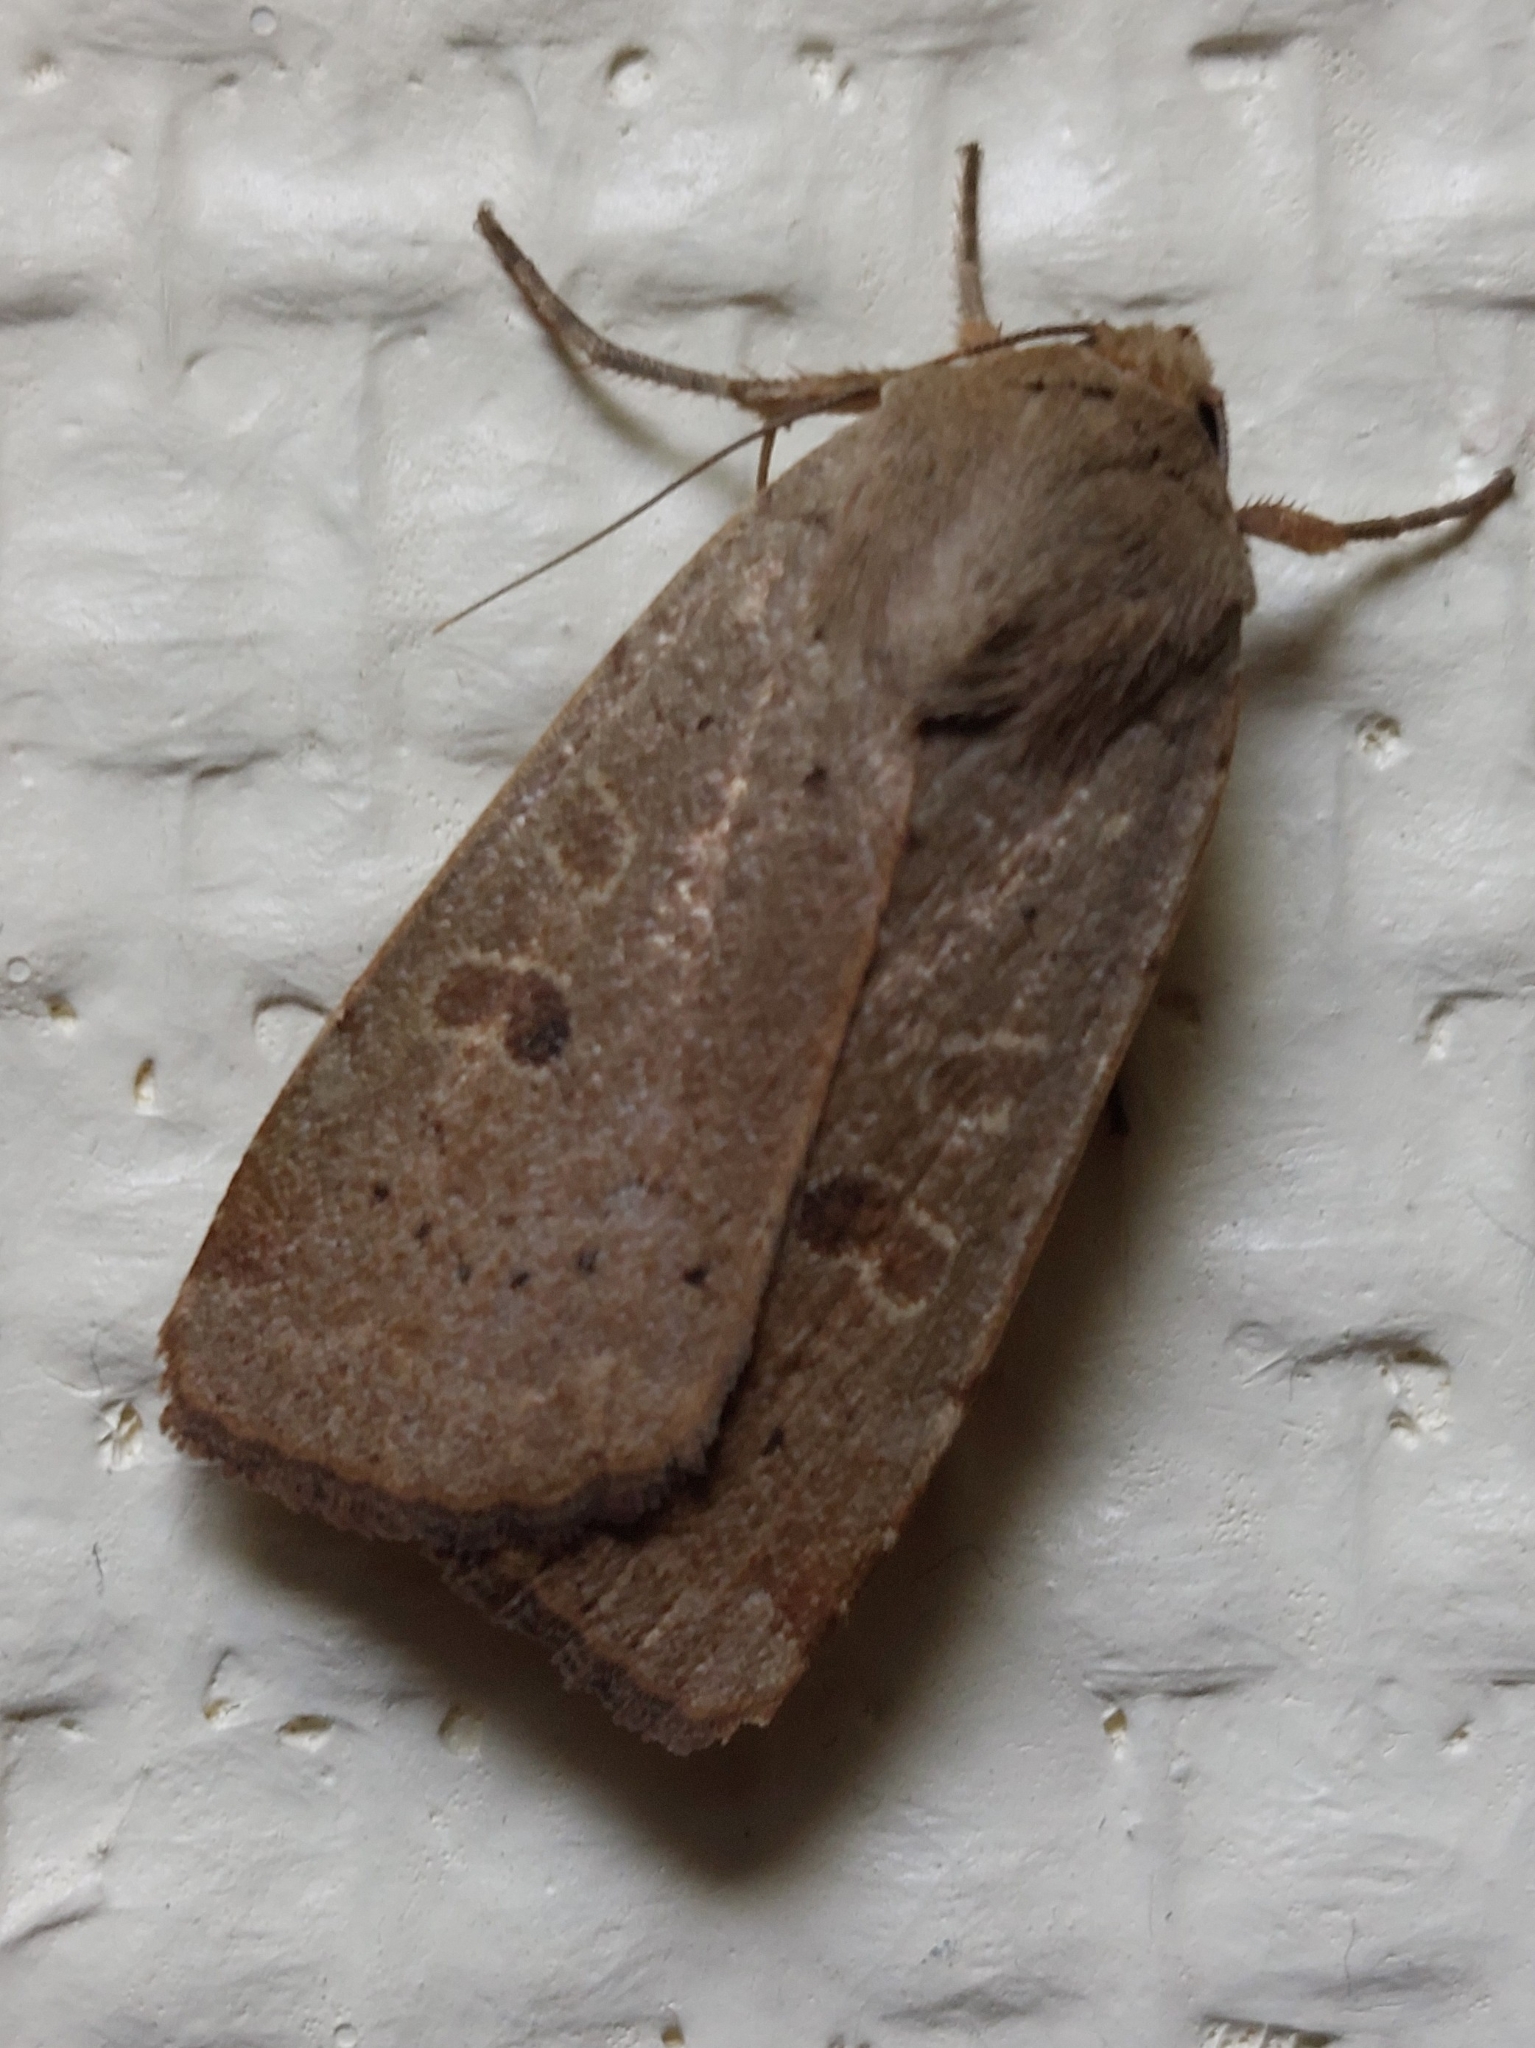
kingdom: Animalia
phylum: Arthropoda
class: Insecta
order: Lepidoptera
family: Noctuidae
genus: Noctua
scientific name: Noctua comes
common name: Lesser yellow underwing
